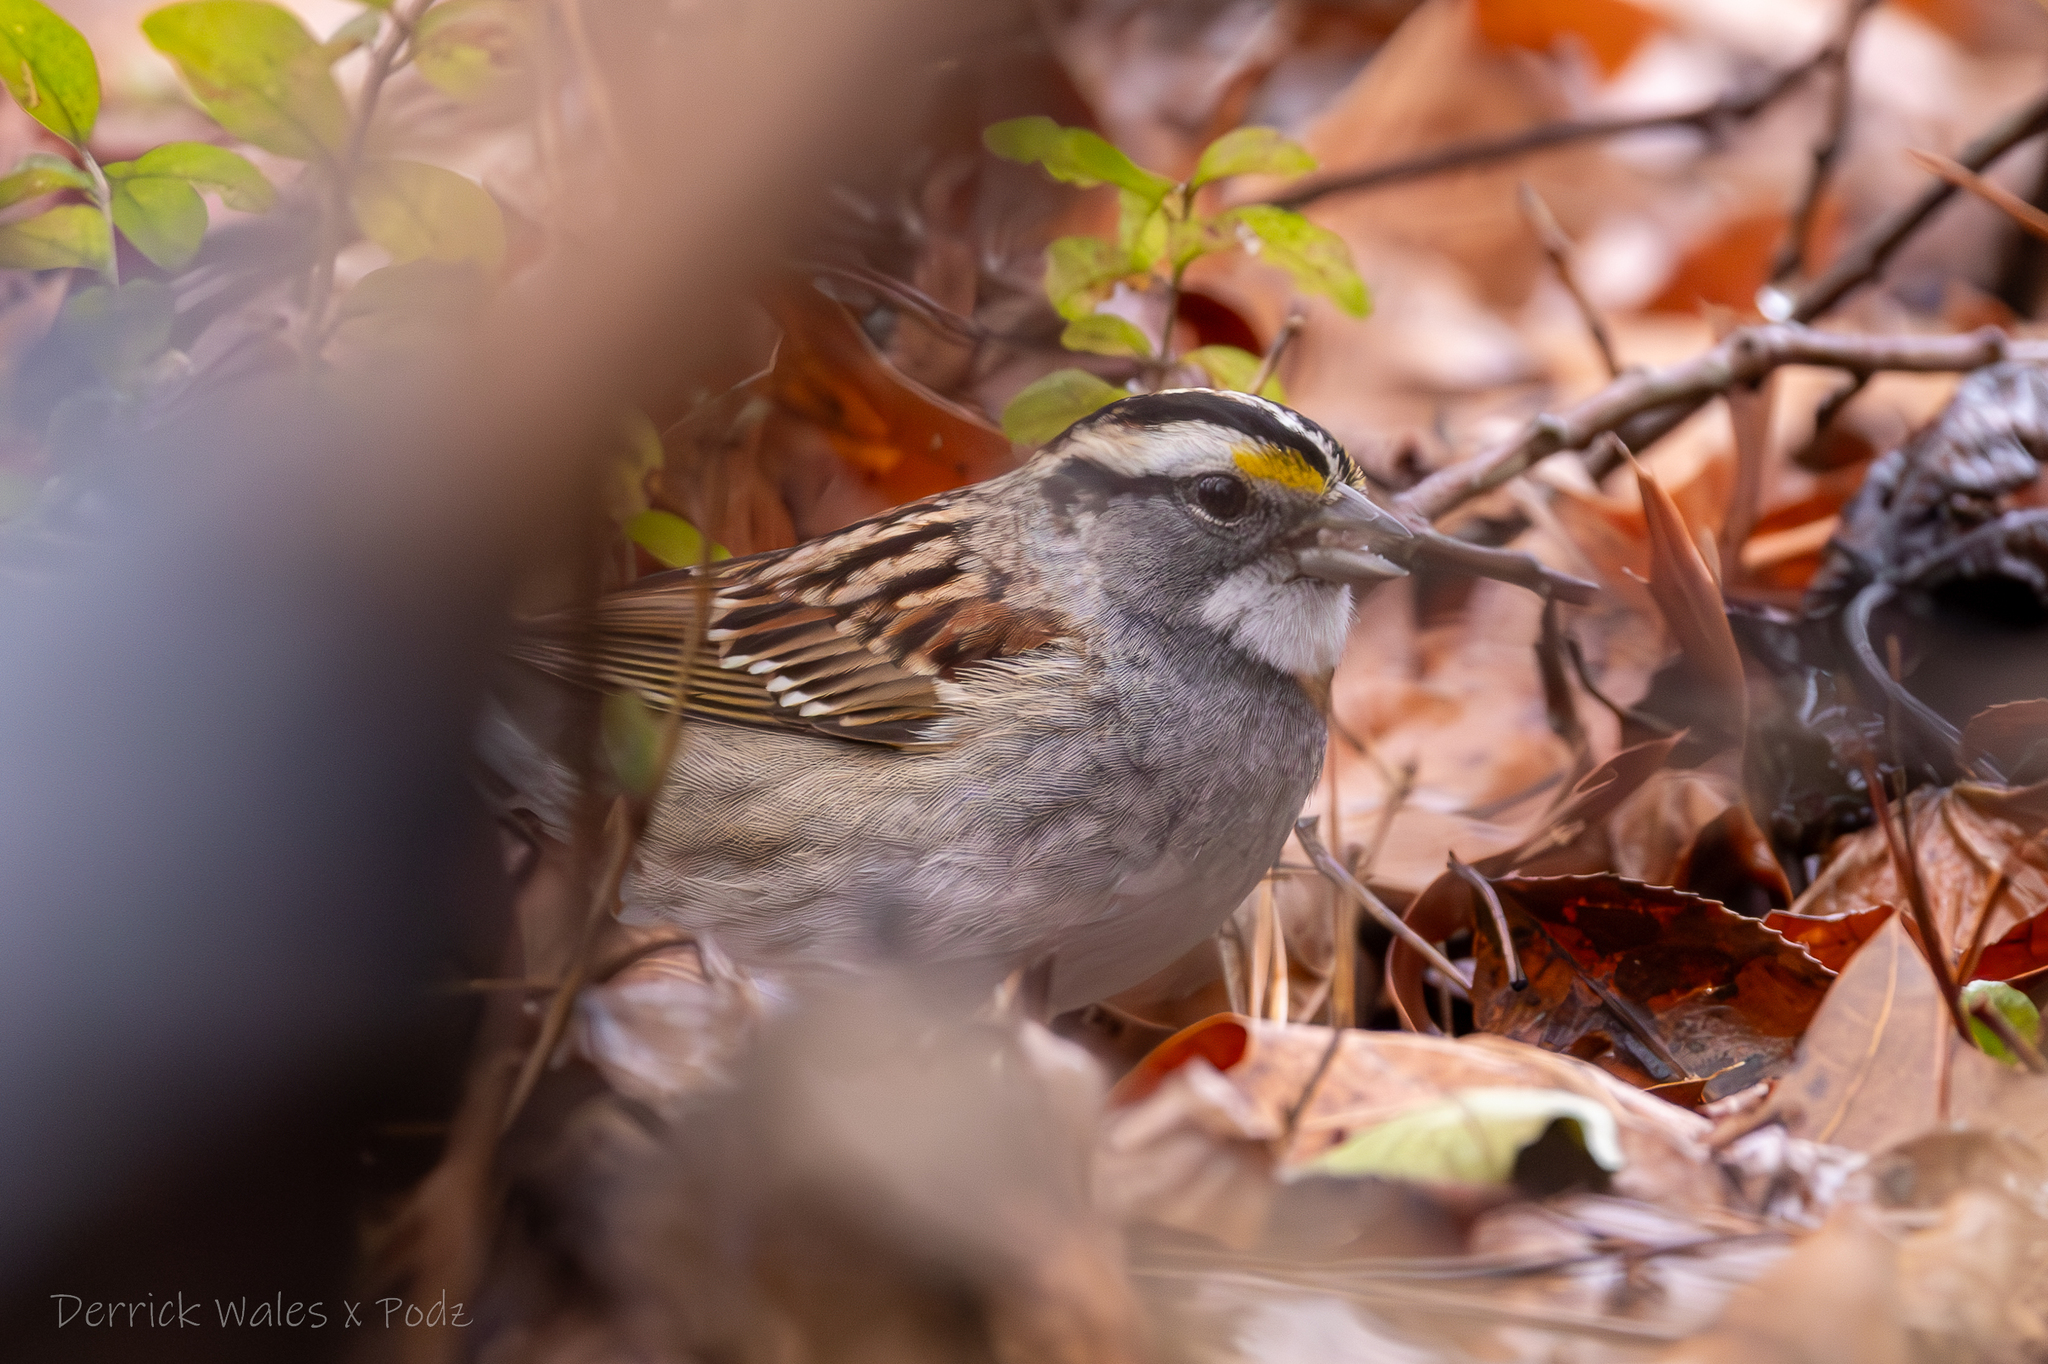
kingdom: Animalia
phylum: Chordata
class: Aves
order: Passeriformes
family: Passerellidae
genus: Zonotrichia
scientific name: Zonotrichia albicollis
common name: White-throated sparrow
